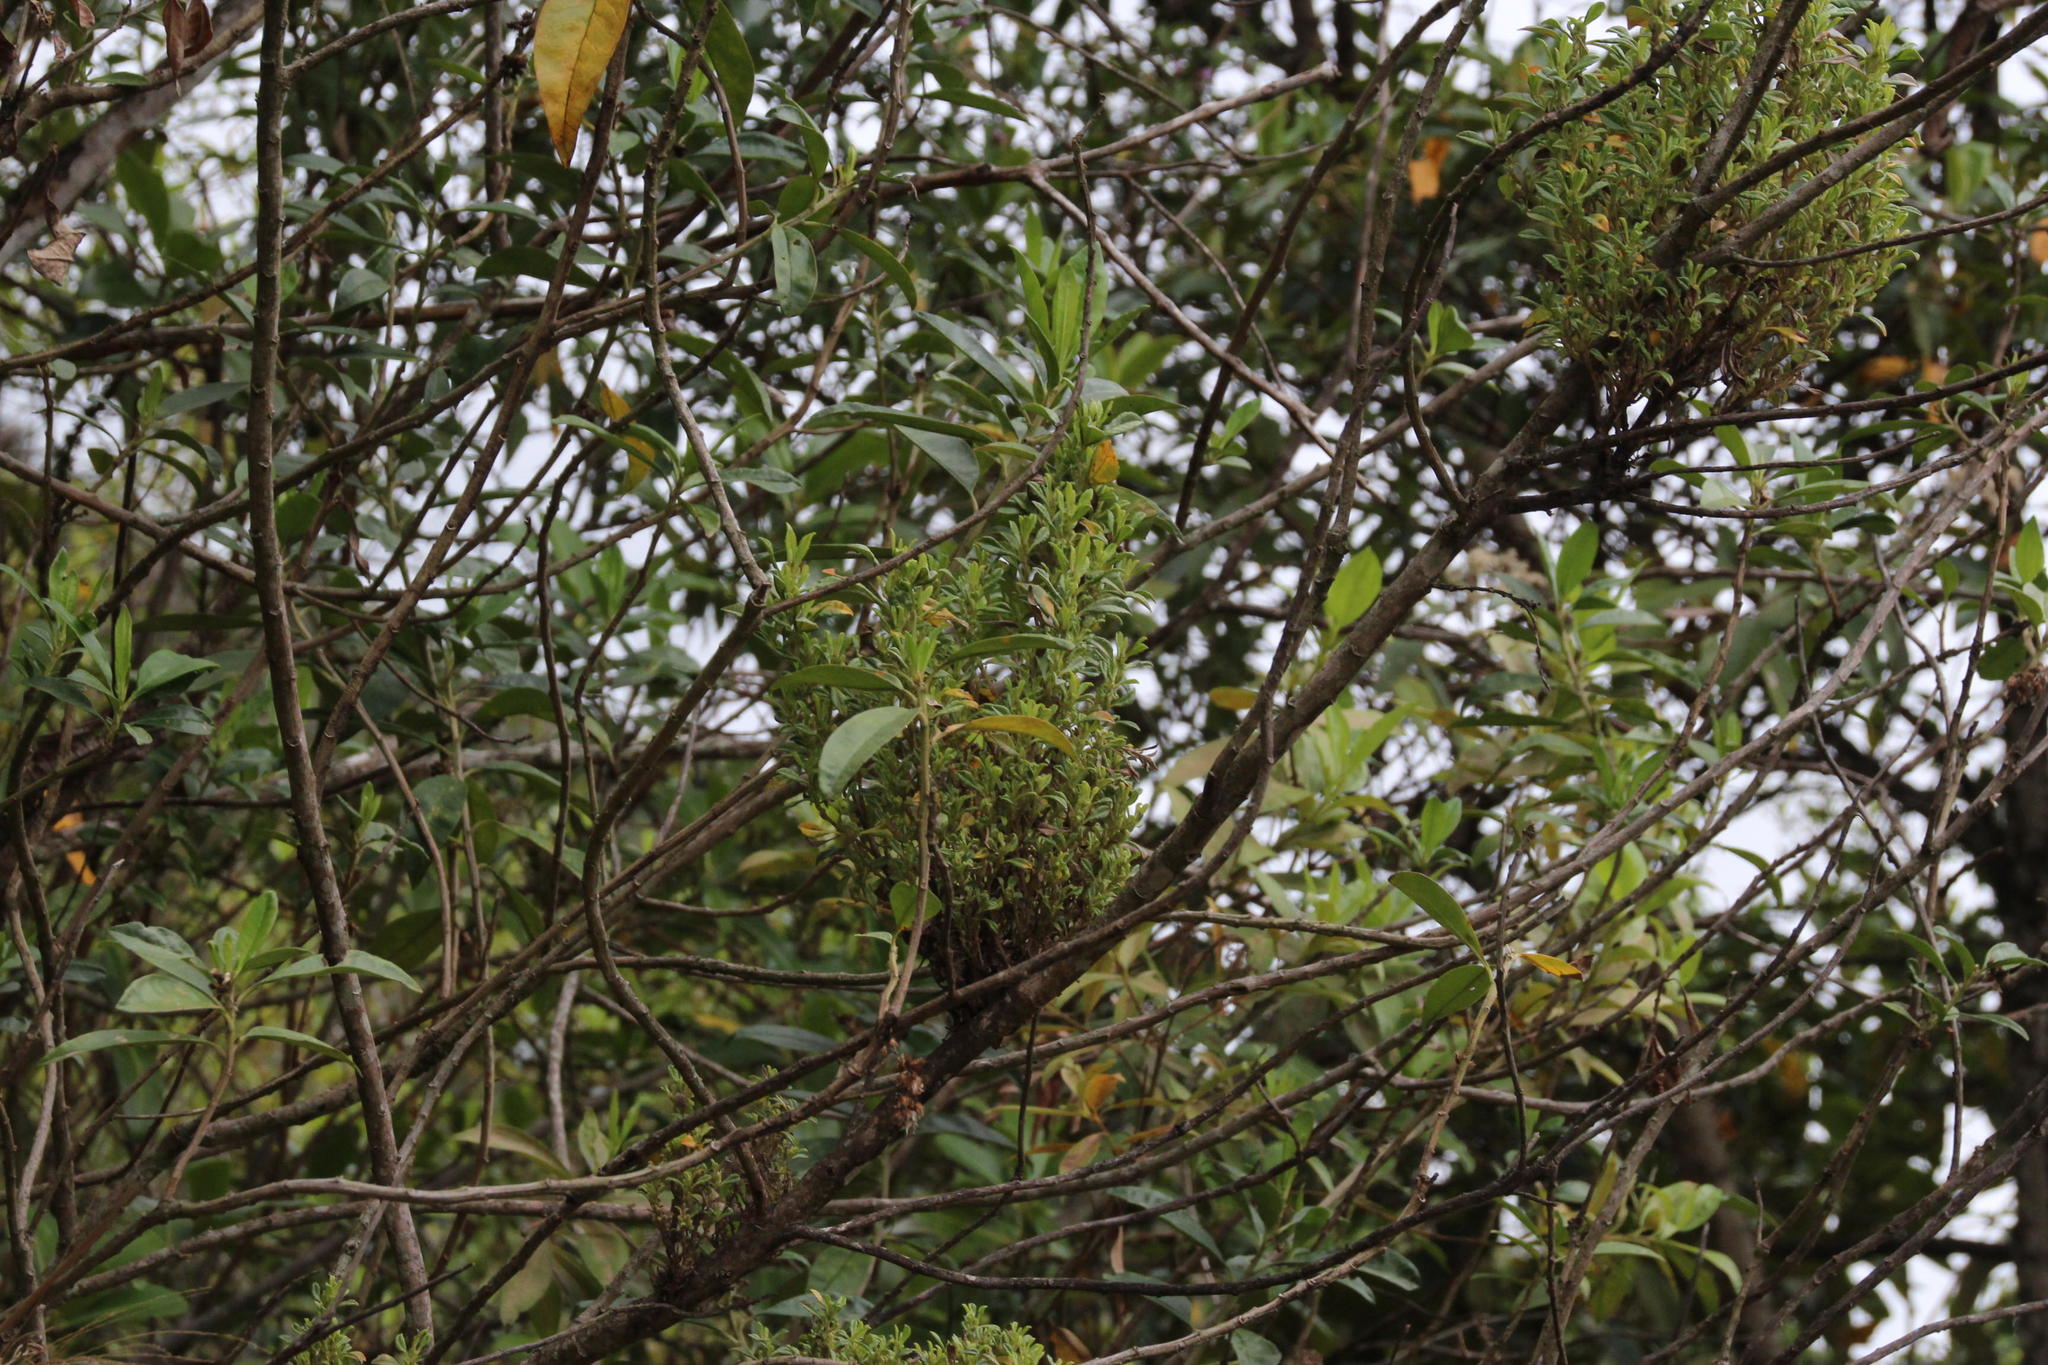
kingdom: Bacteria
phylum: Firmicutes
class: Bacilli
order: Acholeplasmatales
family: Acholeplasmataceae
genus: Phytoplasma
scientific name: Phytoplasma
